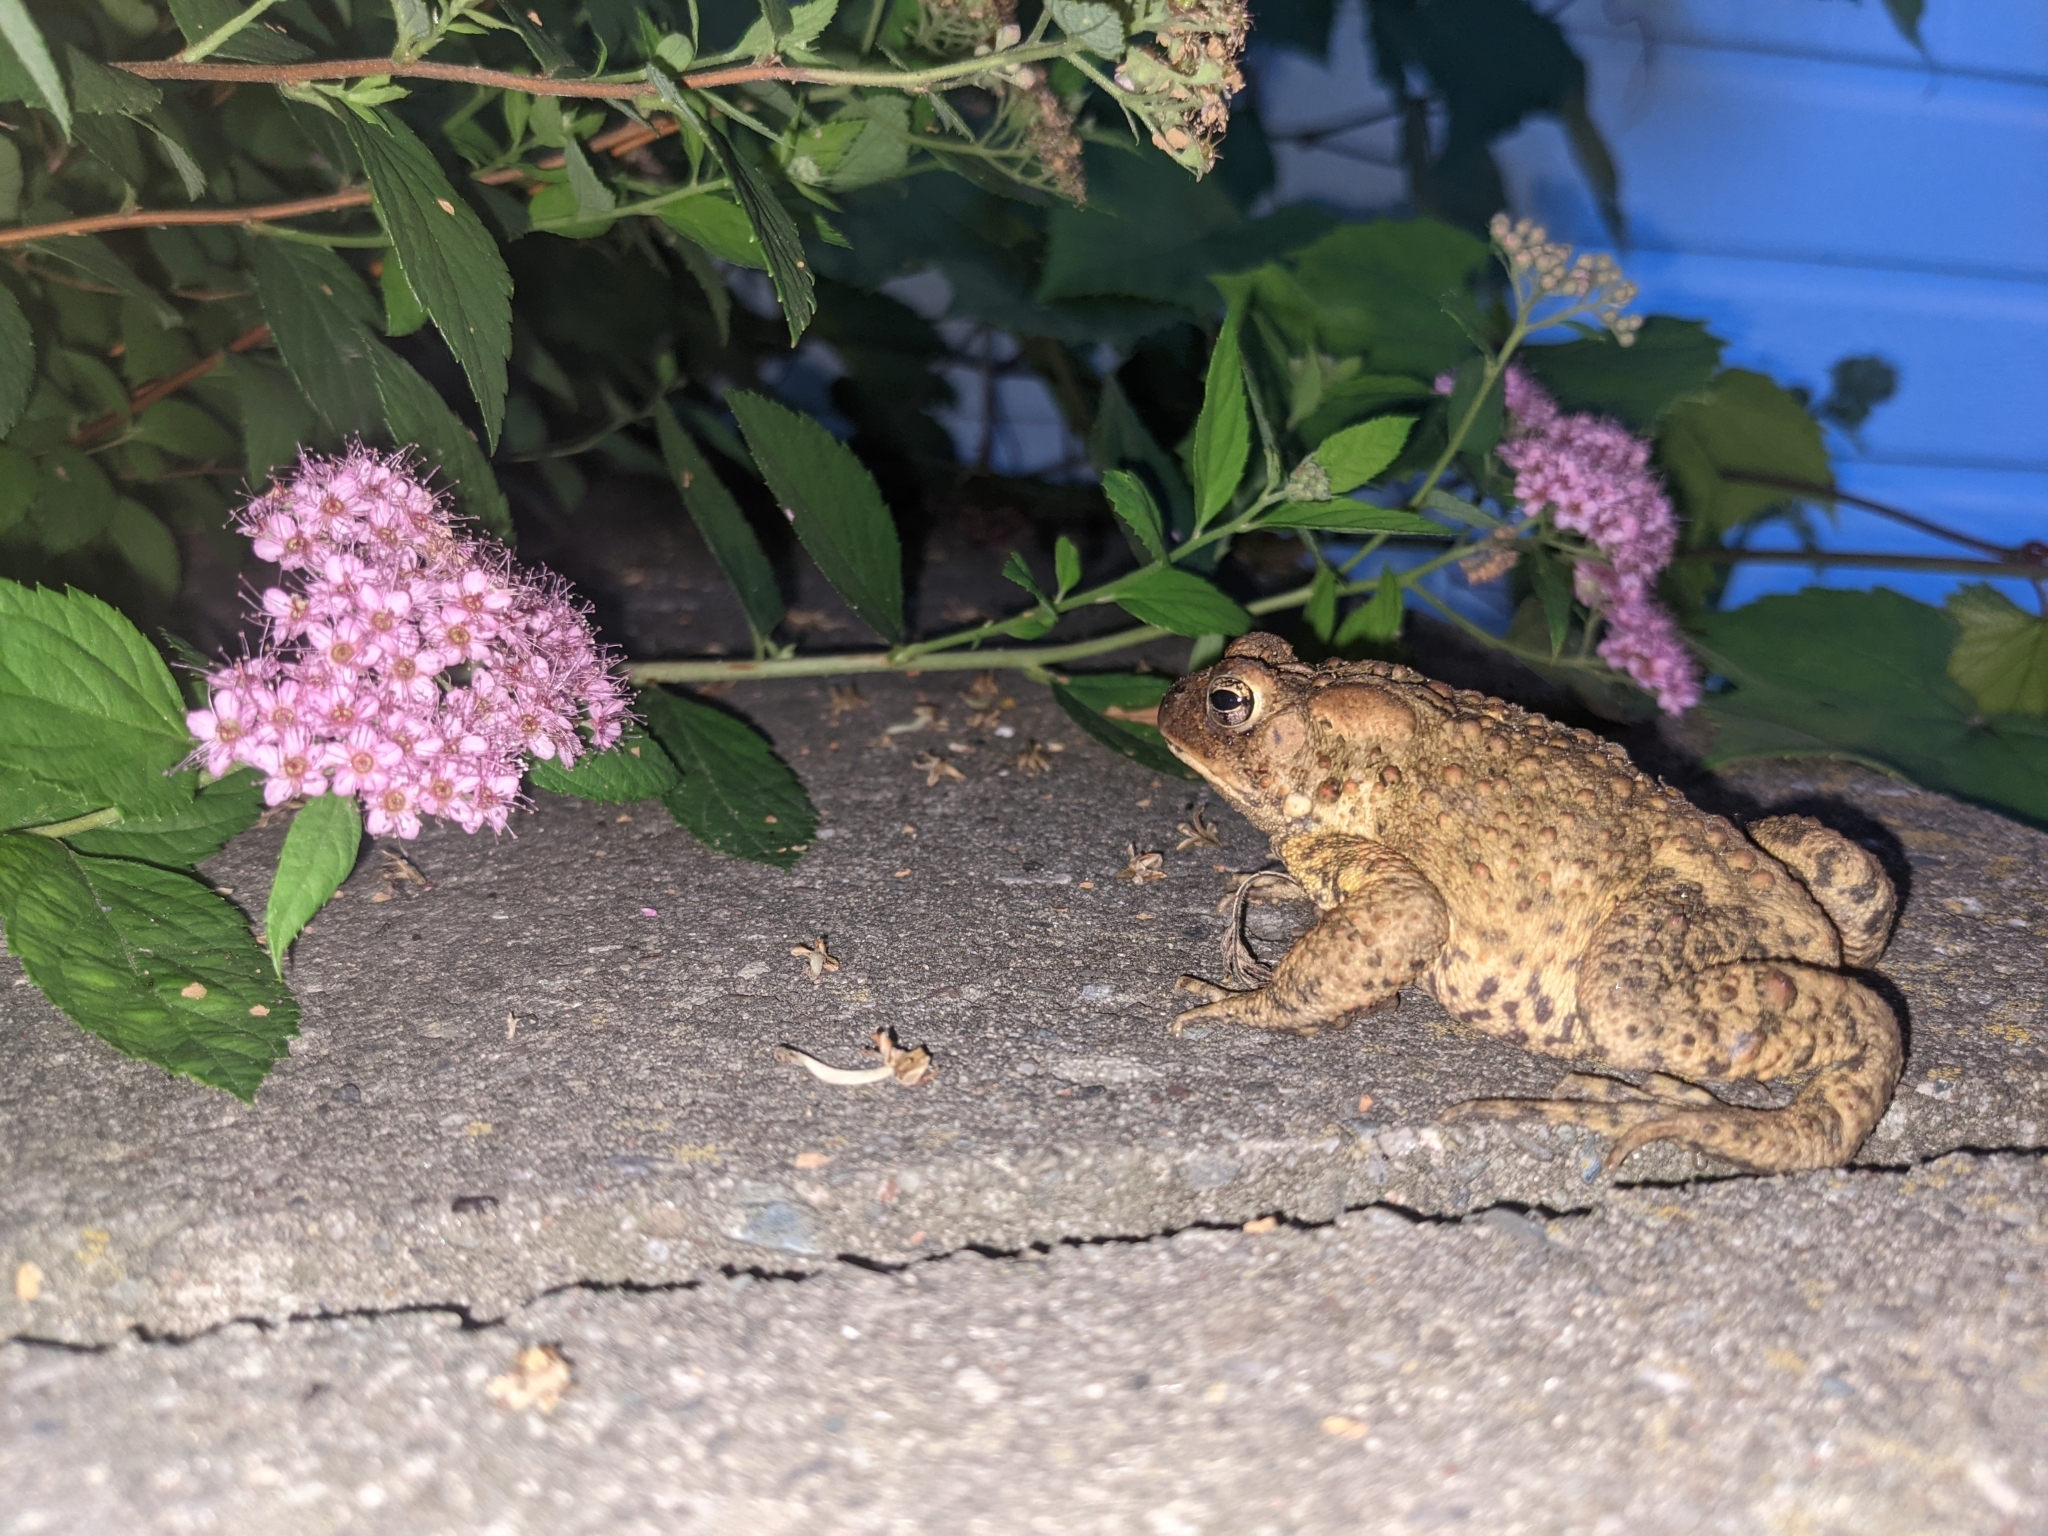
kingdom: Animalia
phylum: Chordata
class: Amphibia
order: Anura
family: Bufonidae
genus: Anaxyrus
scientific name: Anaxyrus americanus
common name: American toad
